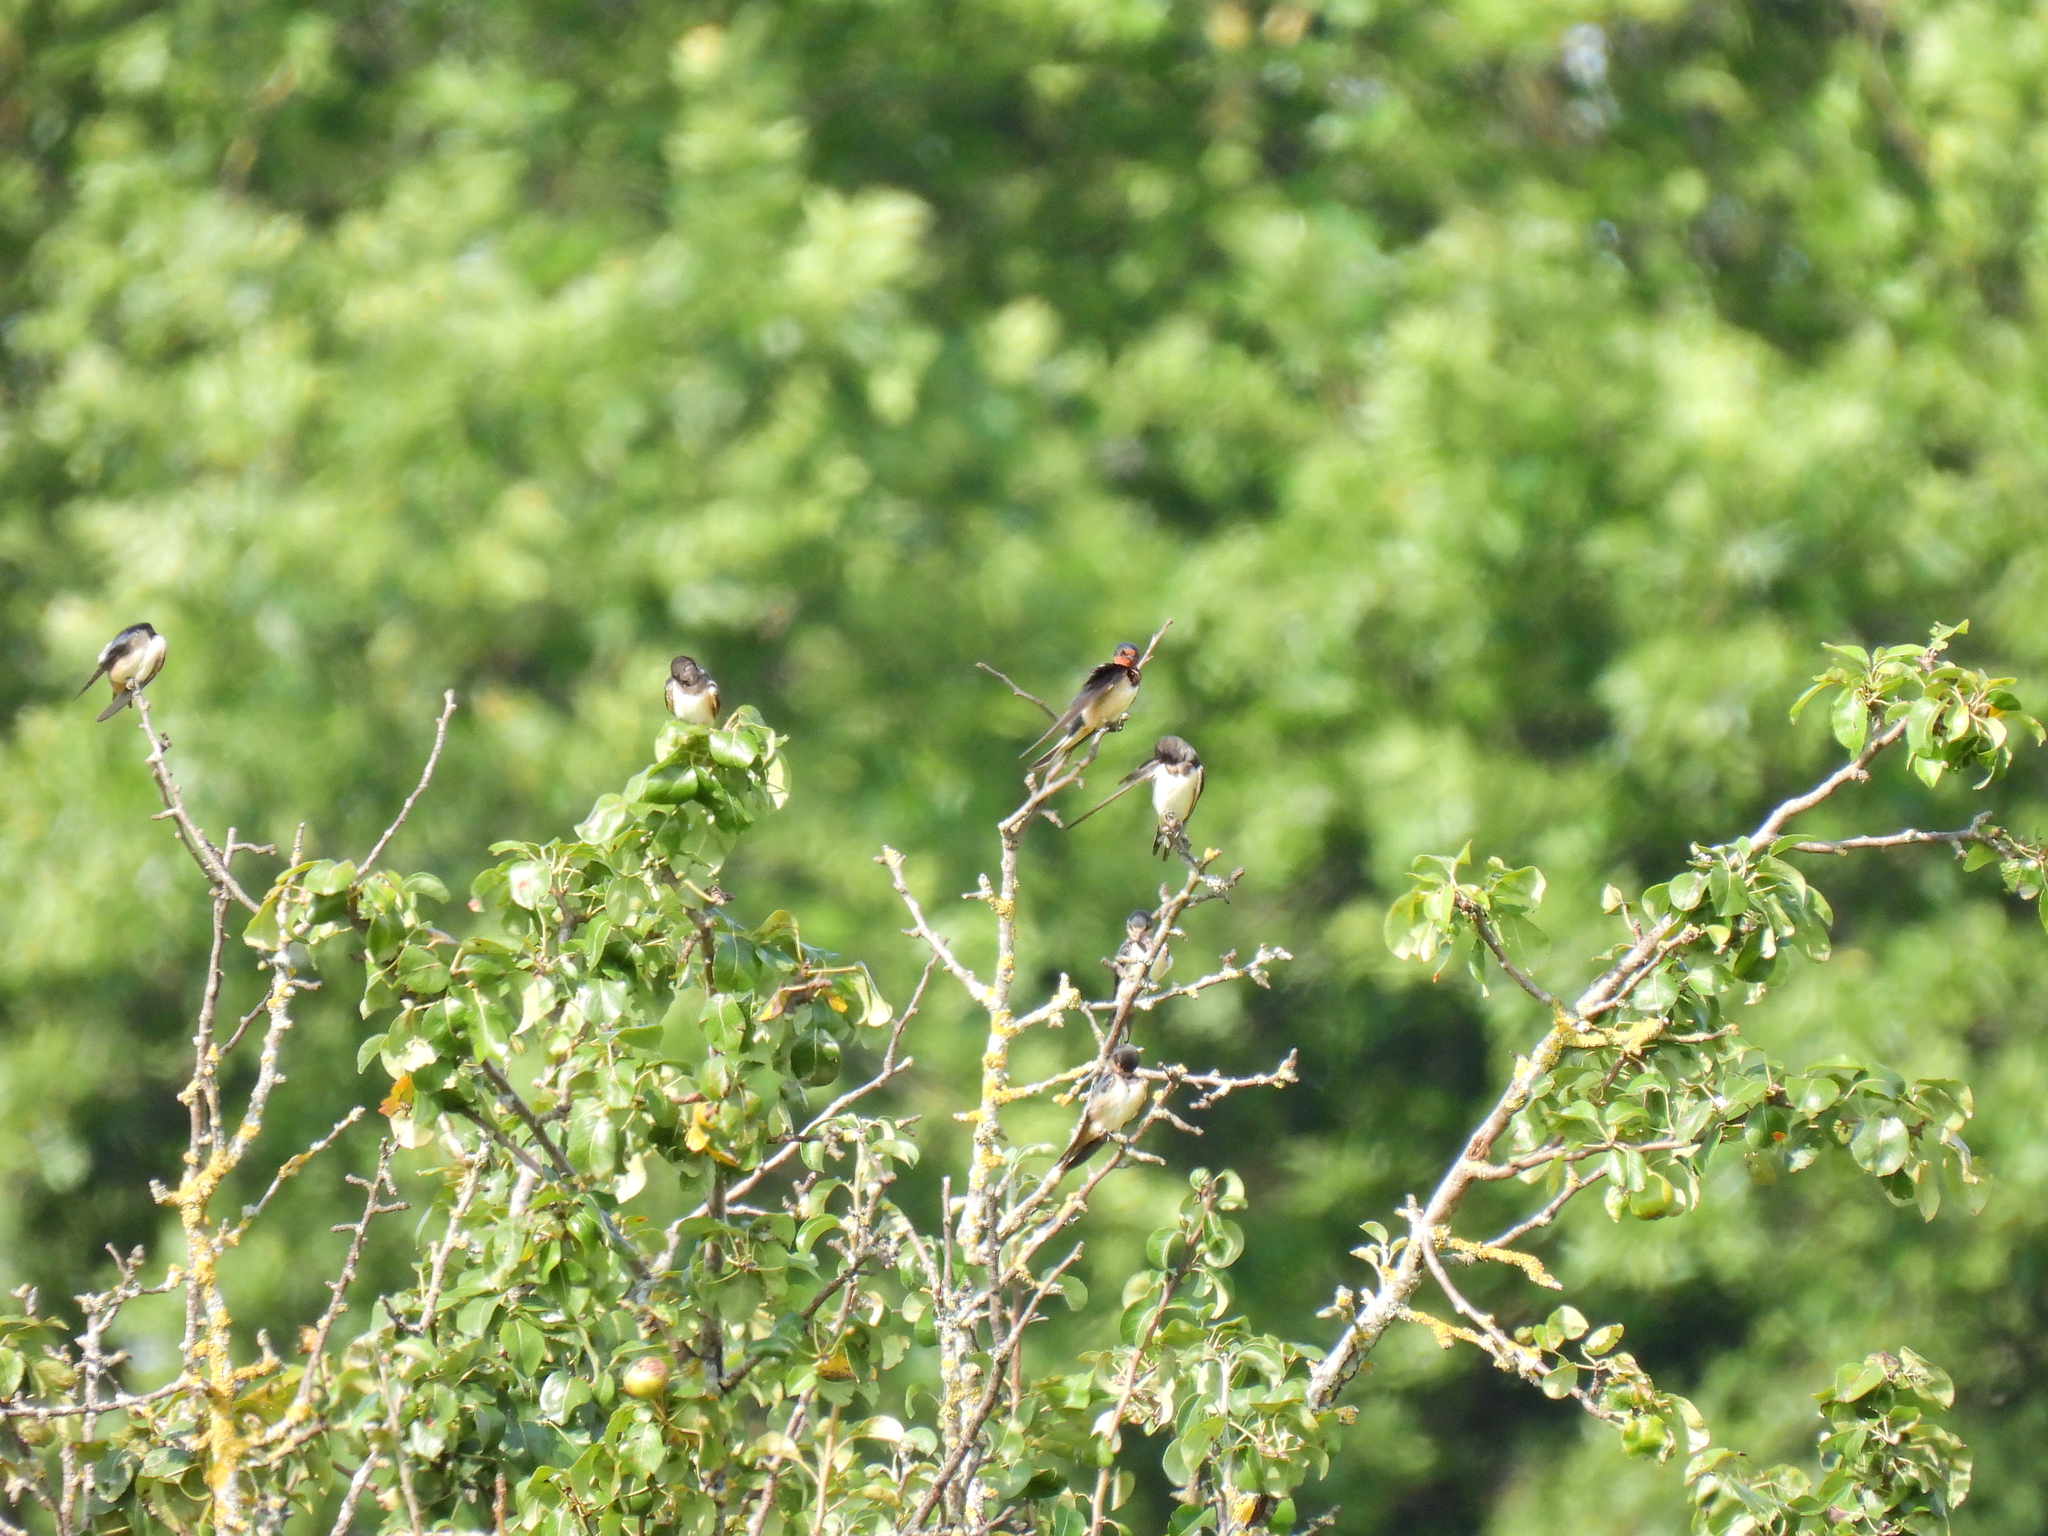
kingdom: Animalia
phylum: Chordata
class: Aves
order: Passeriformes
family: Hirundinidae
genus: Hirundo
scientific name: Hirundo rustica
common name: Barn swallow
